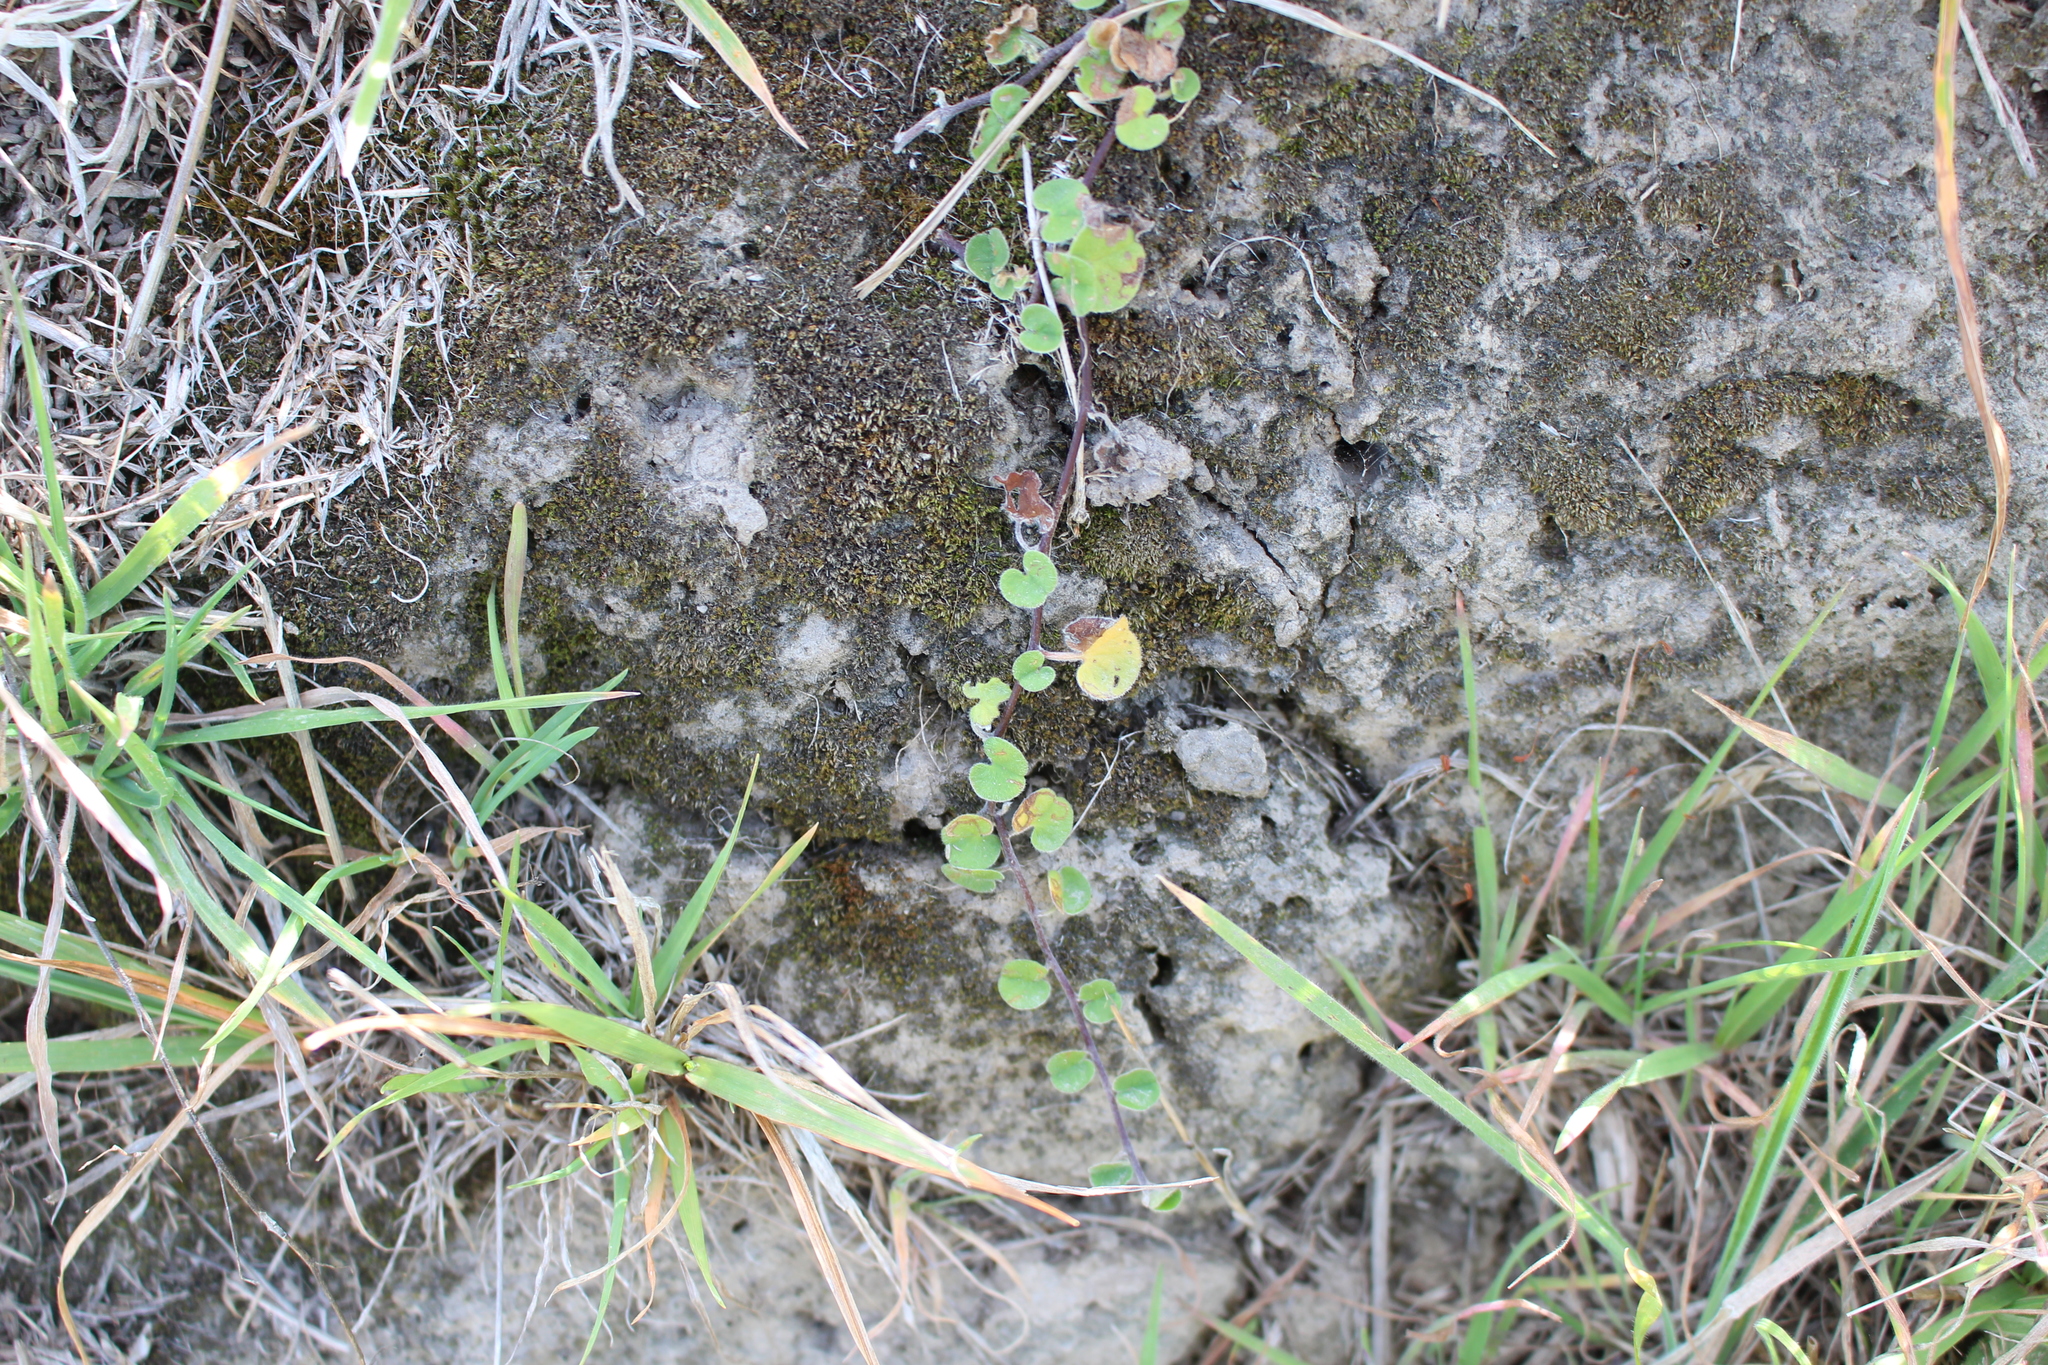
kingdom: Plantae
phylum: Tracheophyta
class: Magnoliopsida
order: Solanales
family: Convolvulaceae
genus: Dichondra
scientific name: Dichondra repens
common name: Kidneyweed
